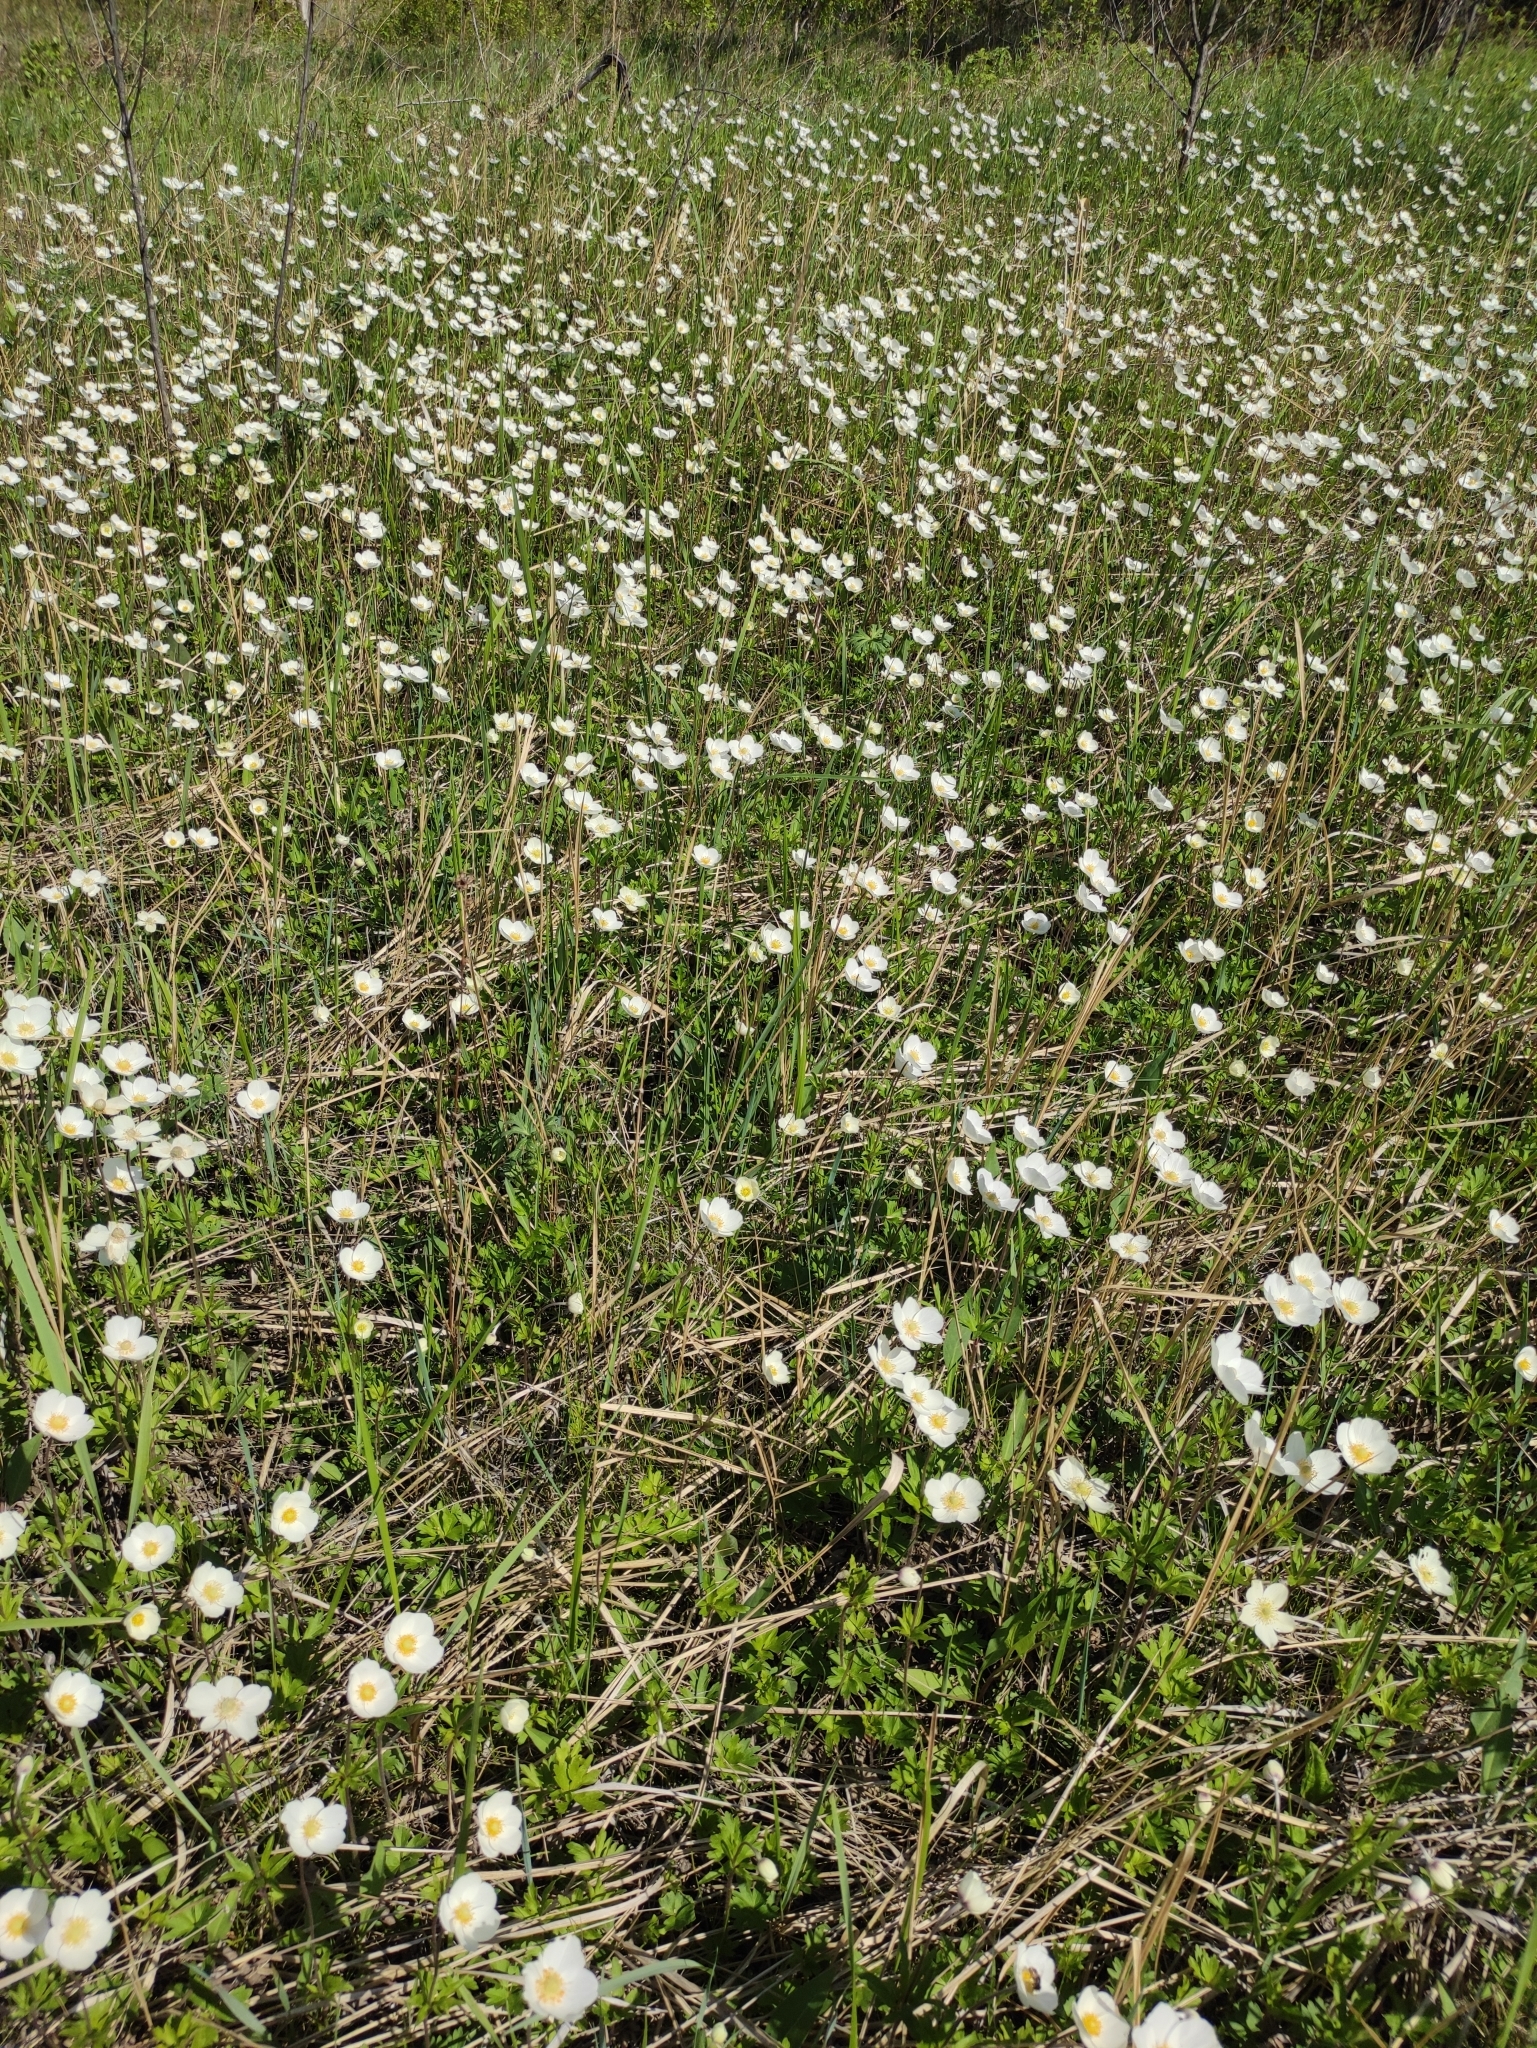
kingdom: Plantae
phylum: Tracheophyta
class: Magnoliopsida
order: Ranunculales
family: Ranunculaceae
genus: Anemone
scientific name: Anemone sylvestris
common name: Snowdrop anemone
